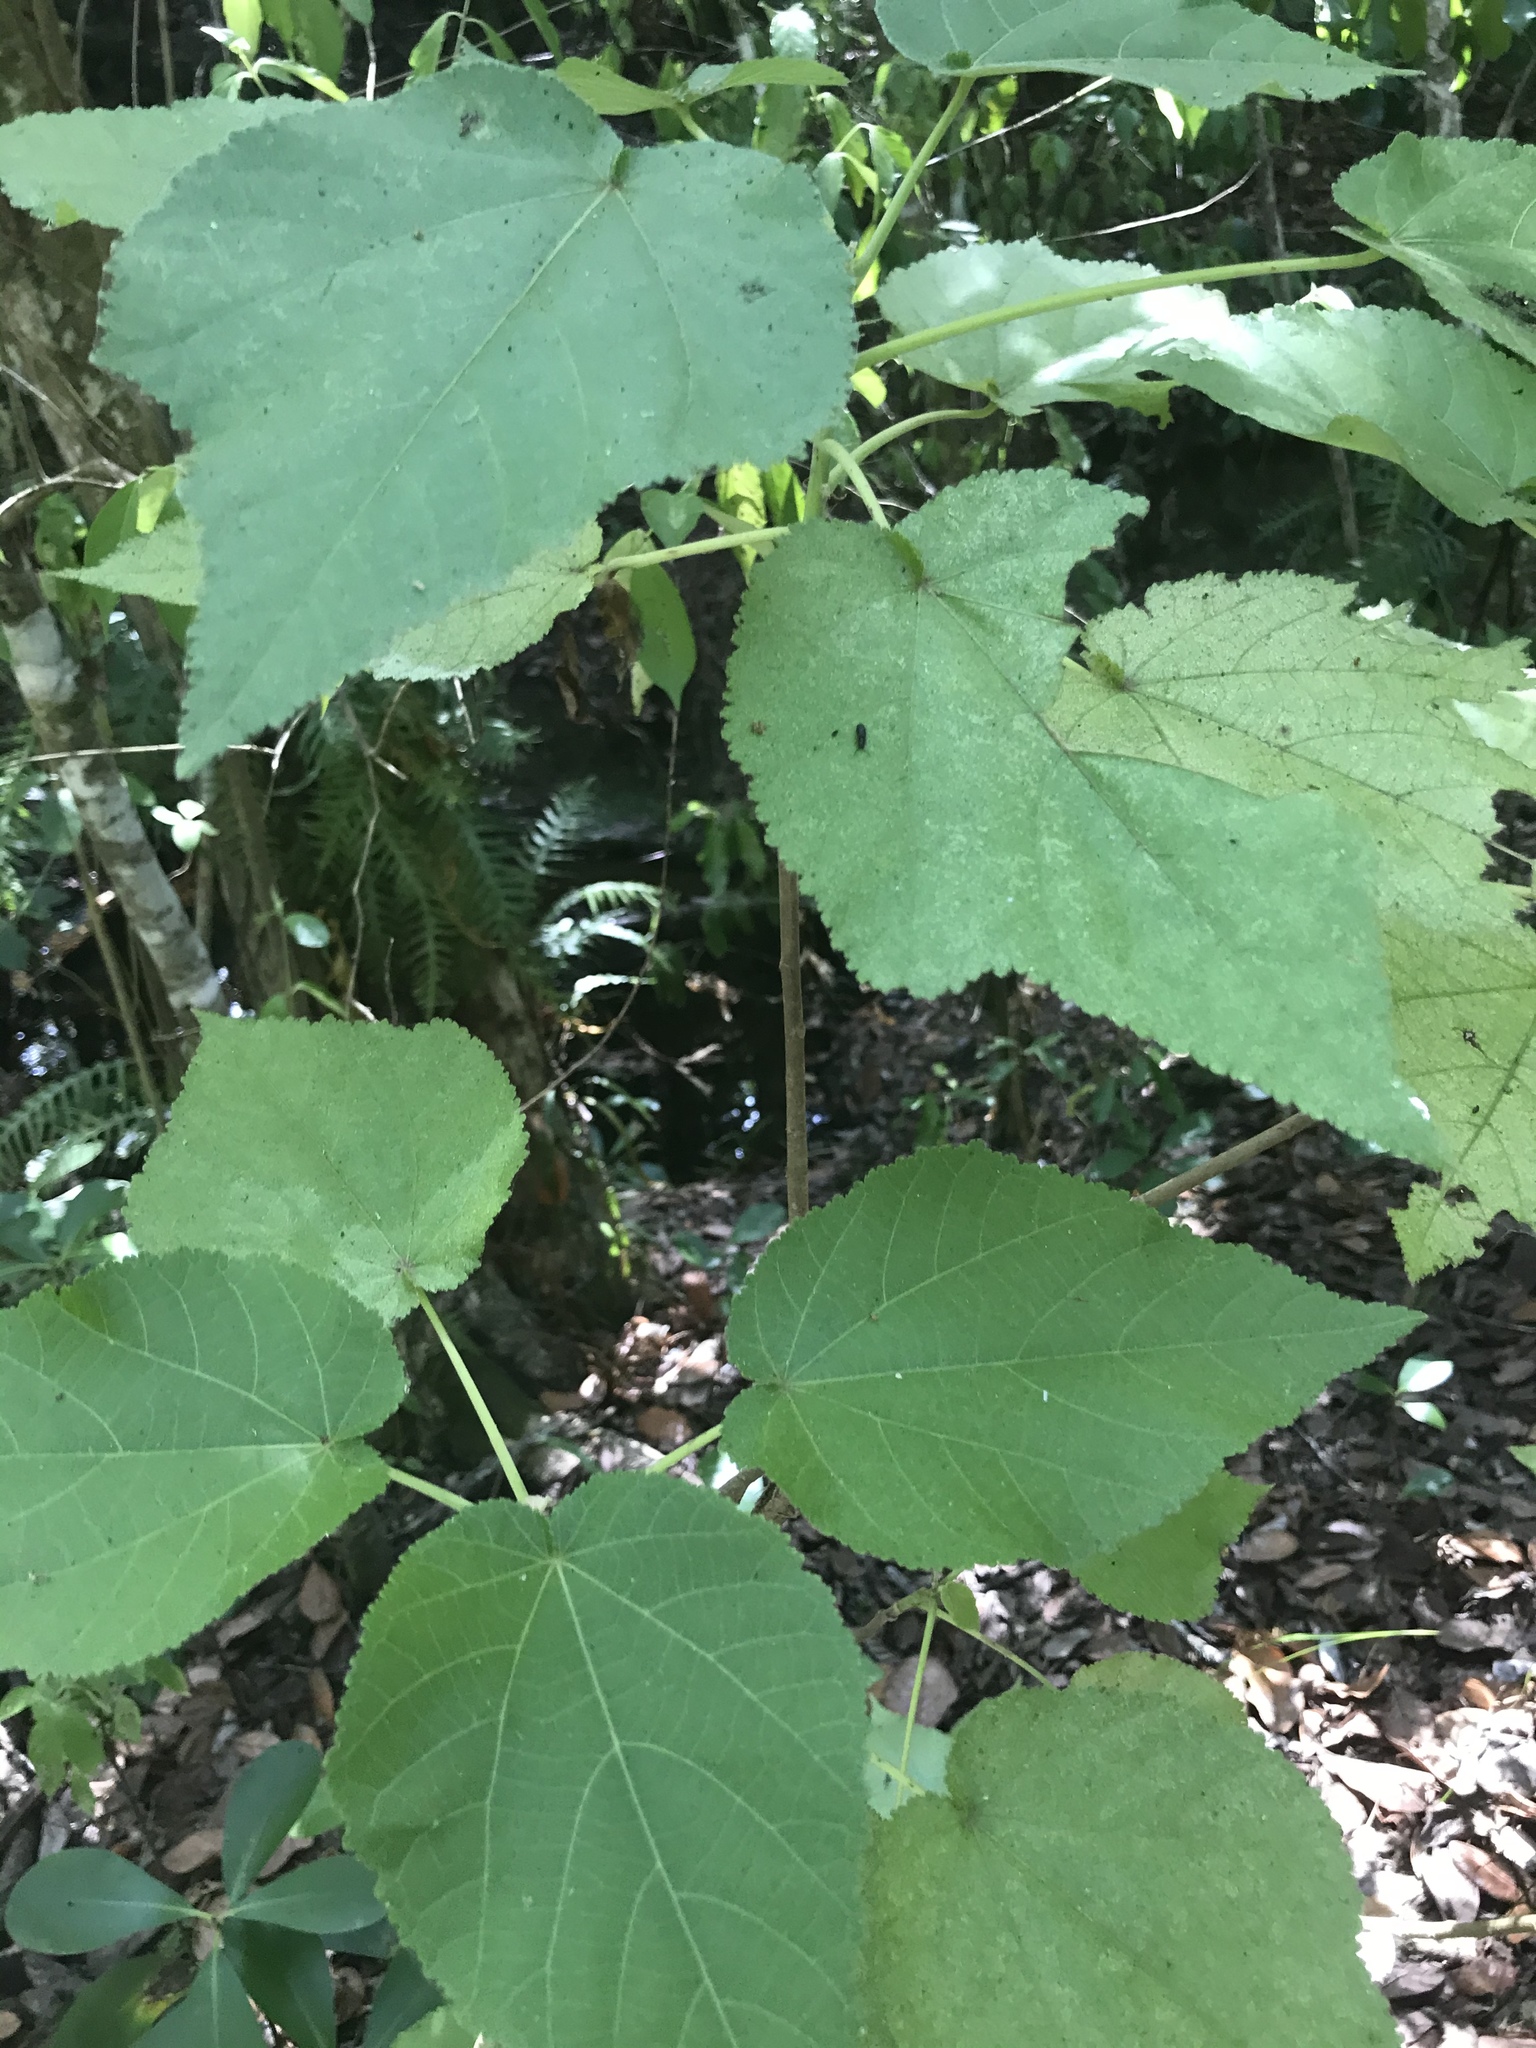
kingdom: Plantae
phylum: Tracheophyta
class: Magnoliopsida
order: Malvales
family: Malvaceae
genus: Entelea
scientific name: Entelea arborescens
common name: New zealand-mulberry
